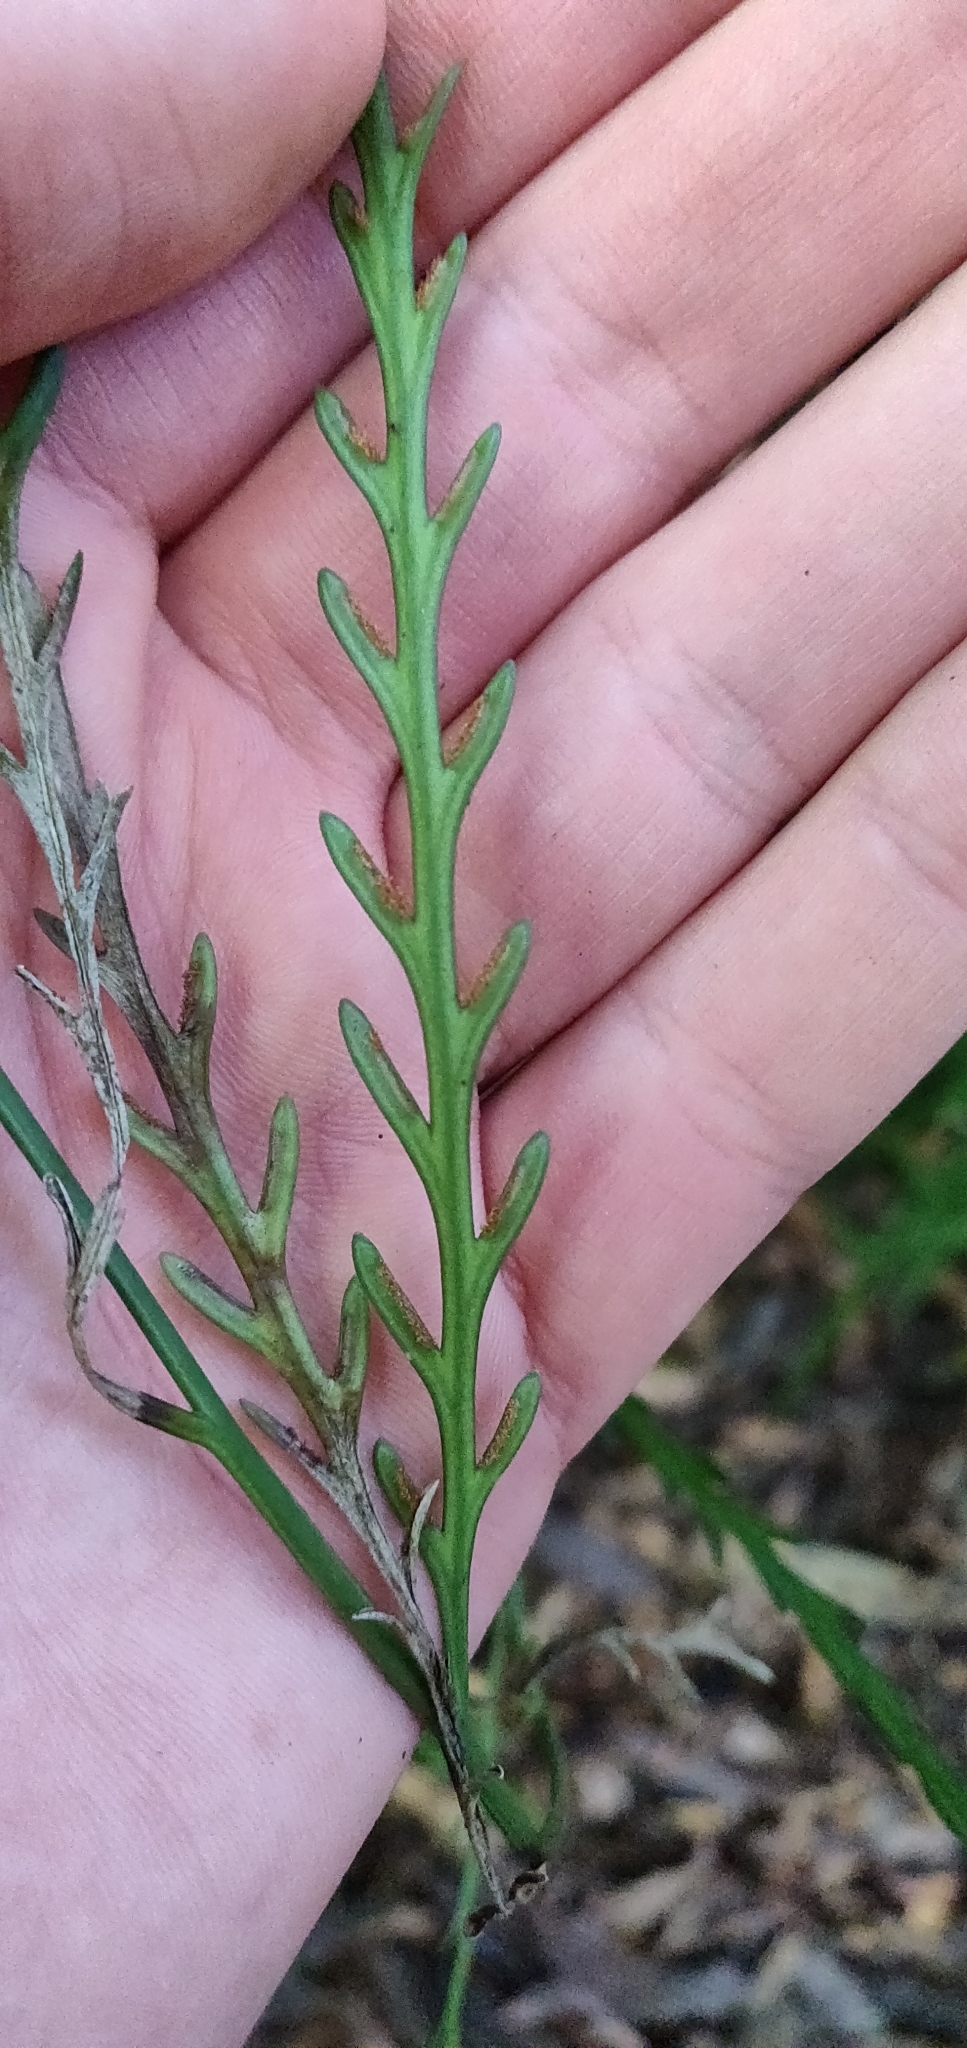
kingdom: Plantae
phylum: Tracheophyta
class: Polypodiopsida
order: Polypodiales
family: Aspleniaceae
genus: Asplenium
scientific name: Asplenium flaccidum
